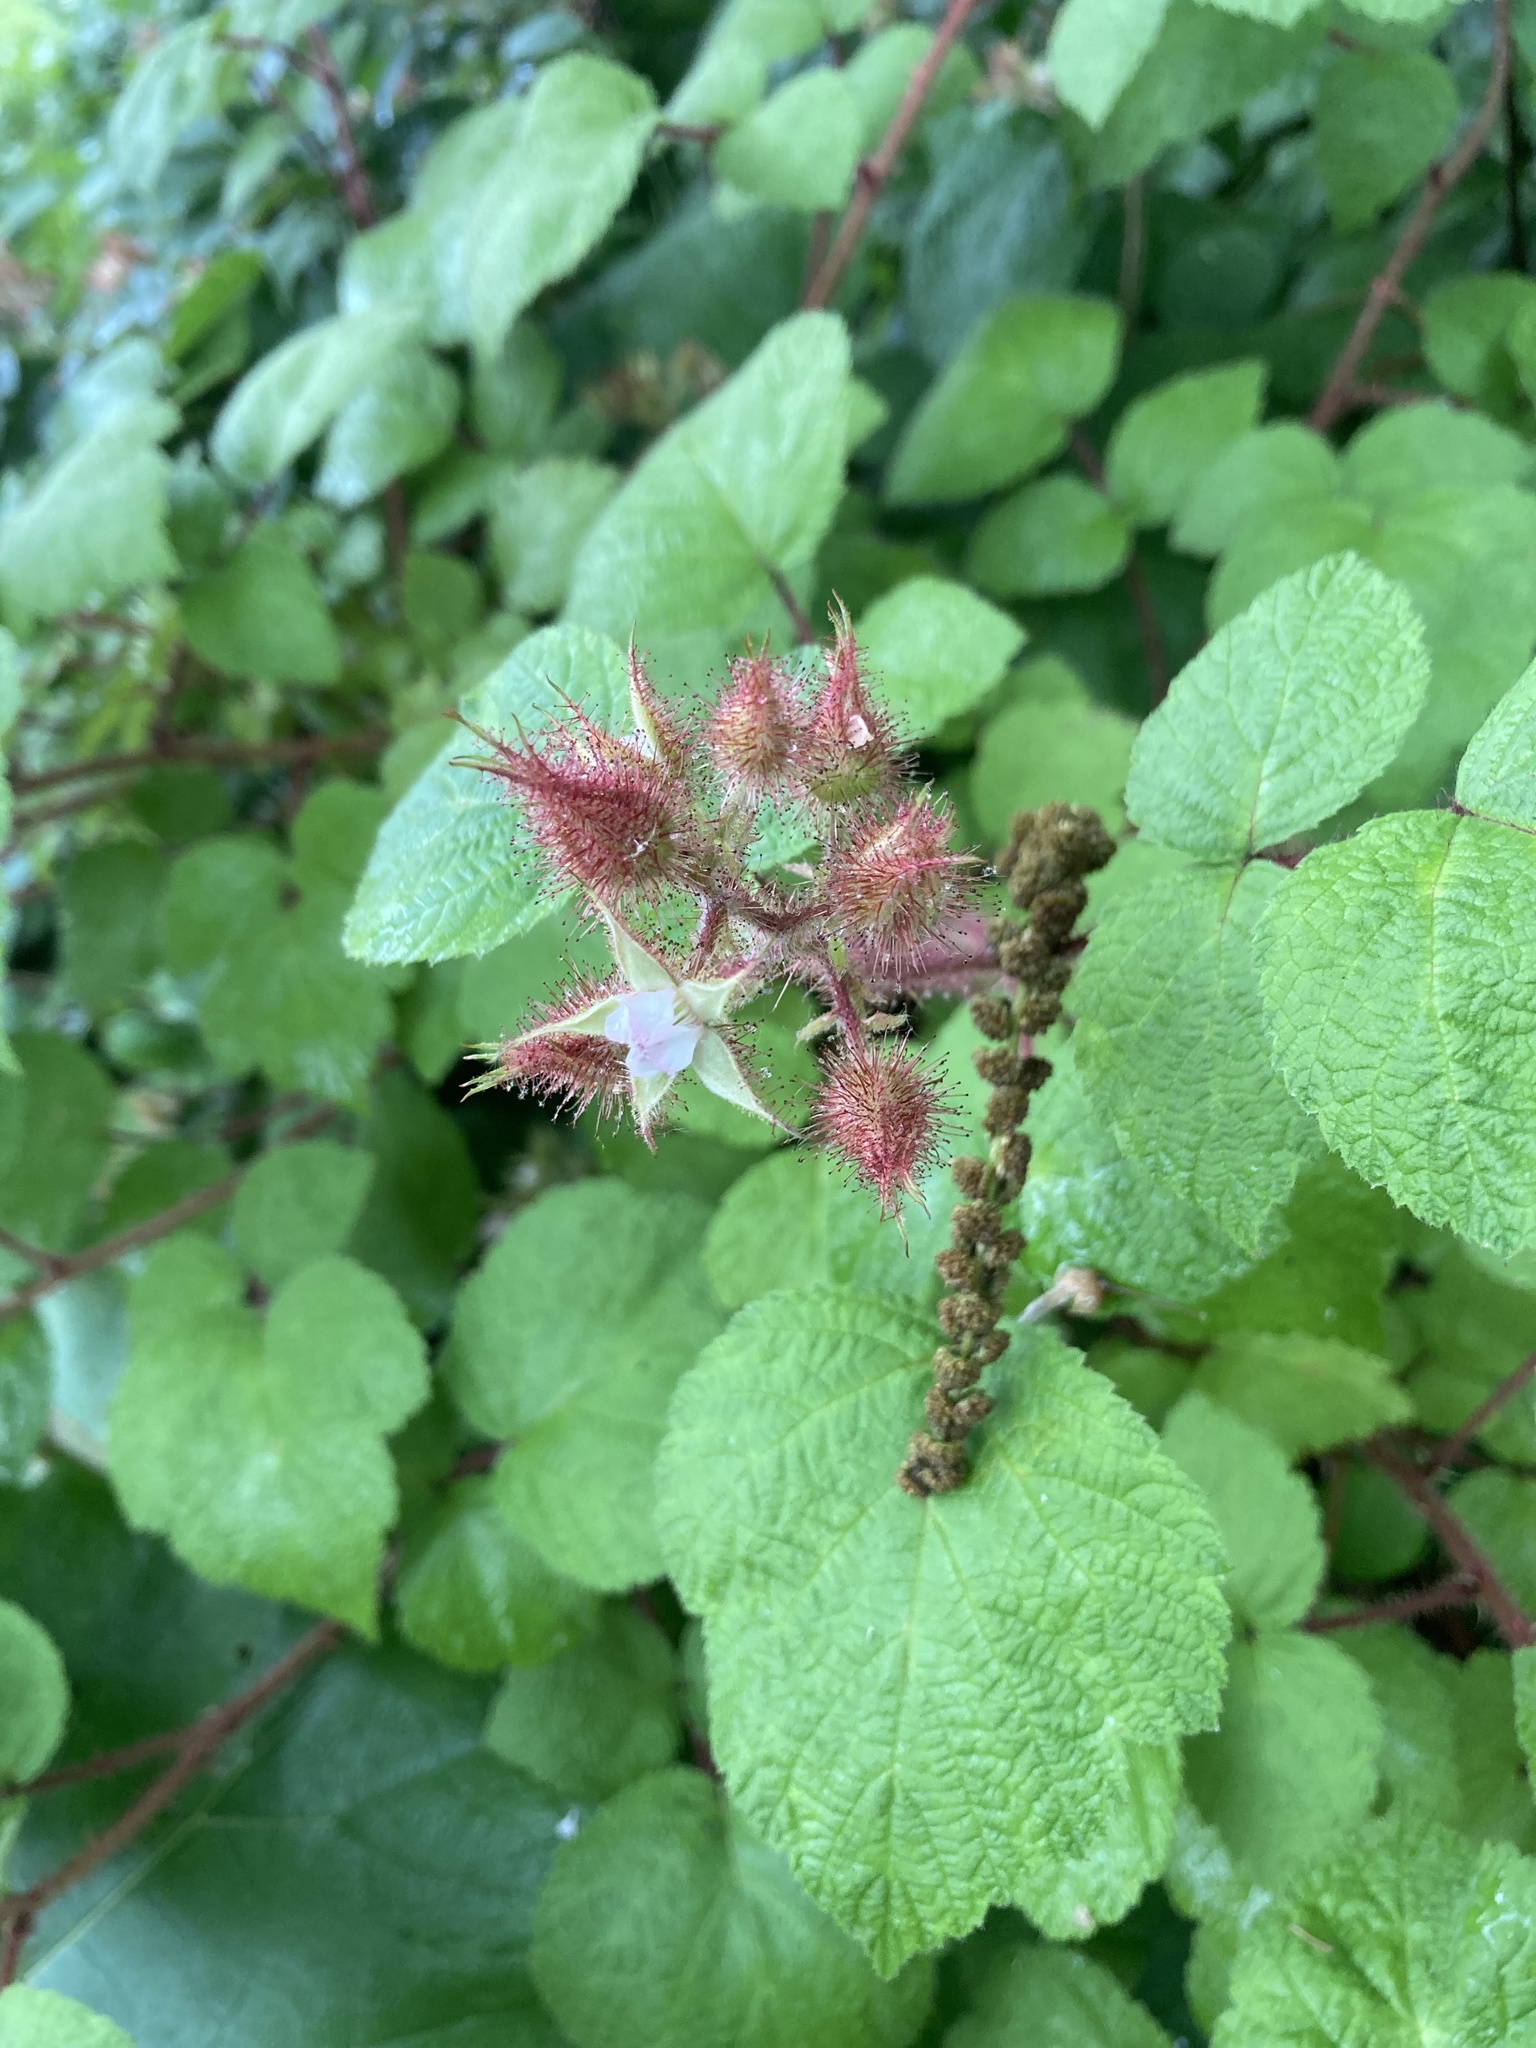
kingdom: Plantae
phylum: Tracheophyta
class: Magnoliopsida
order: Rosales
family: Rosaceae
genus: Rubus
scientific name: Rubus phoenicolasius
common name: Japanese wineberry
